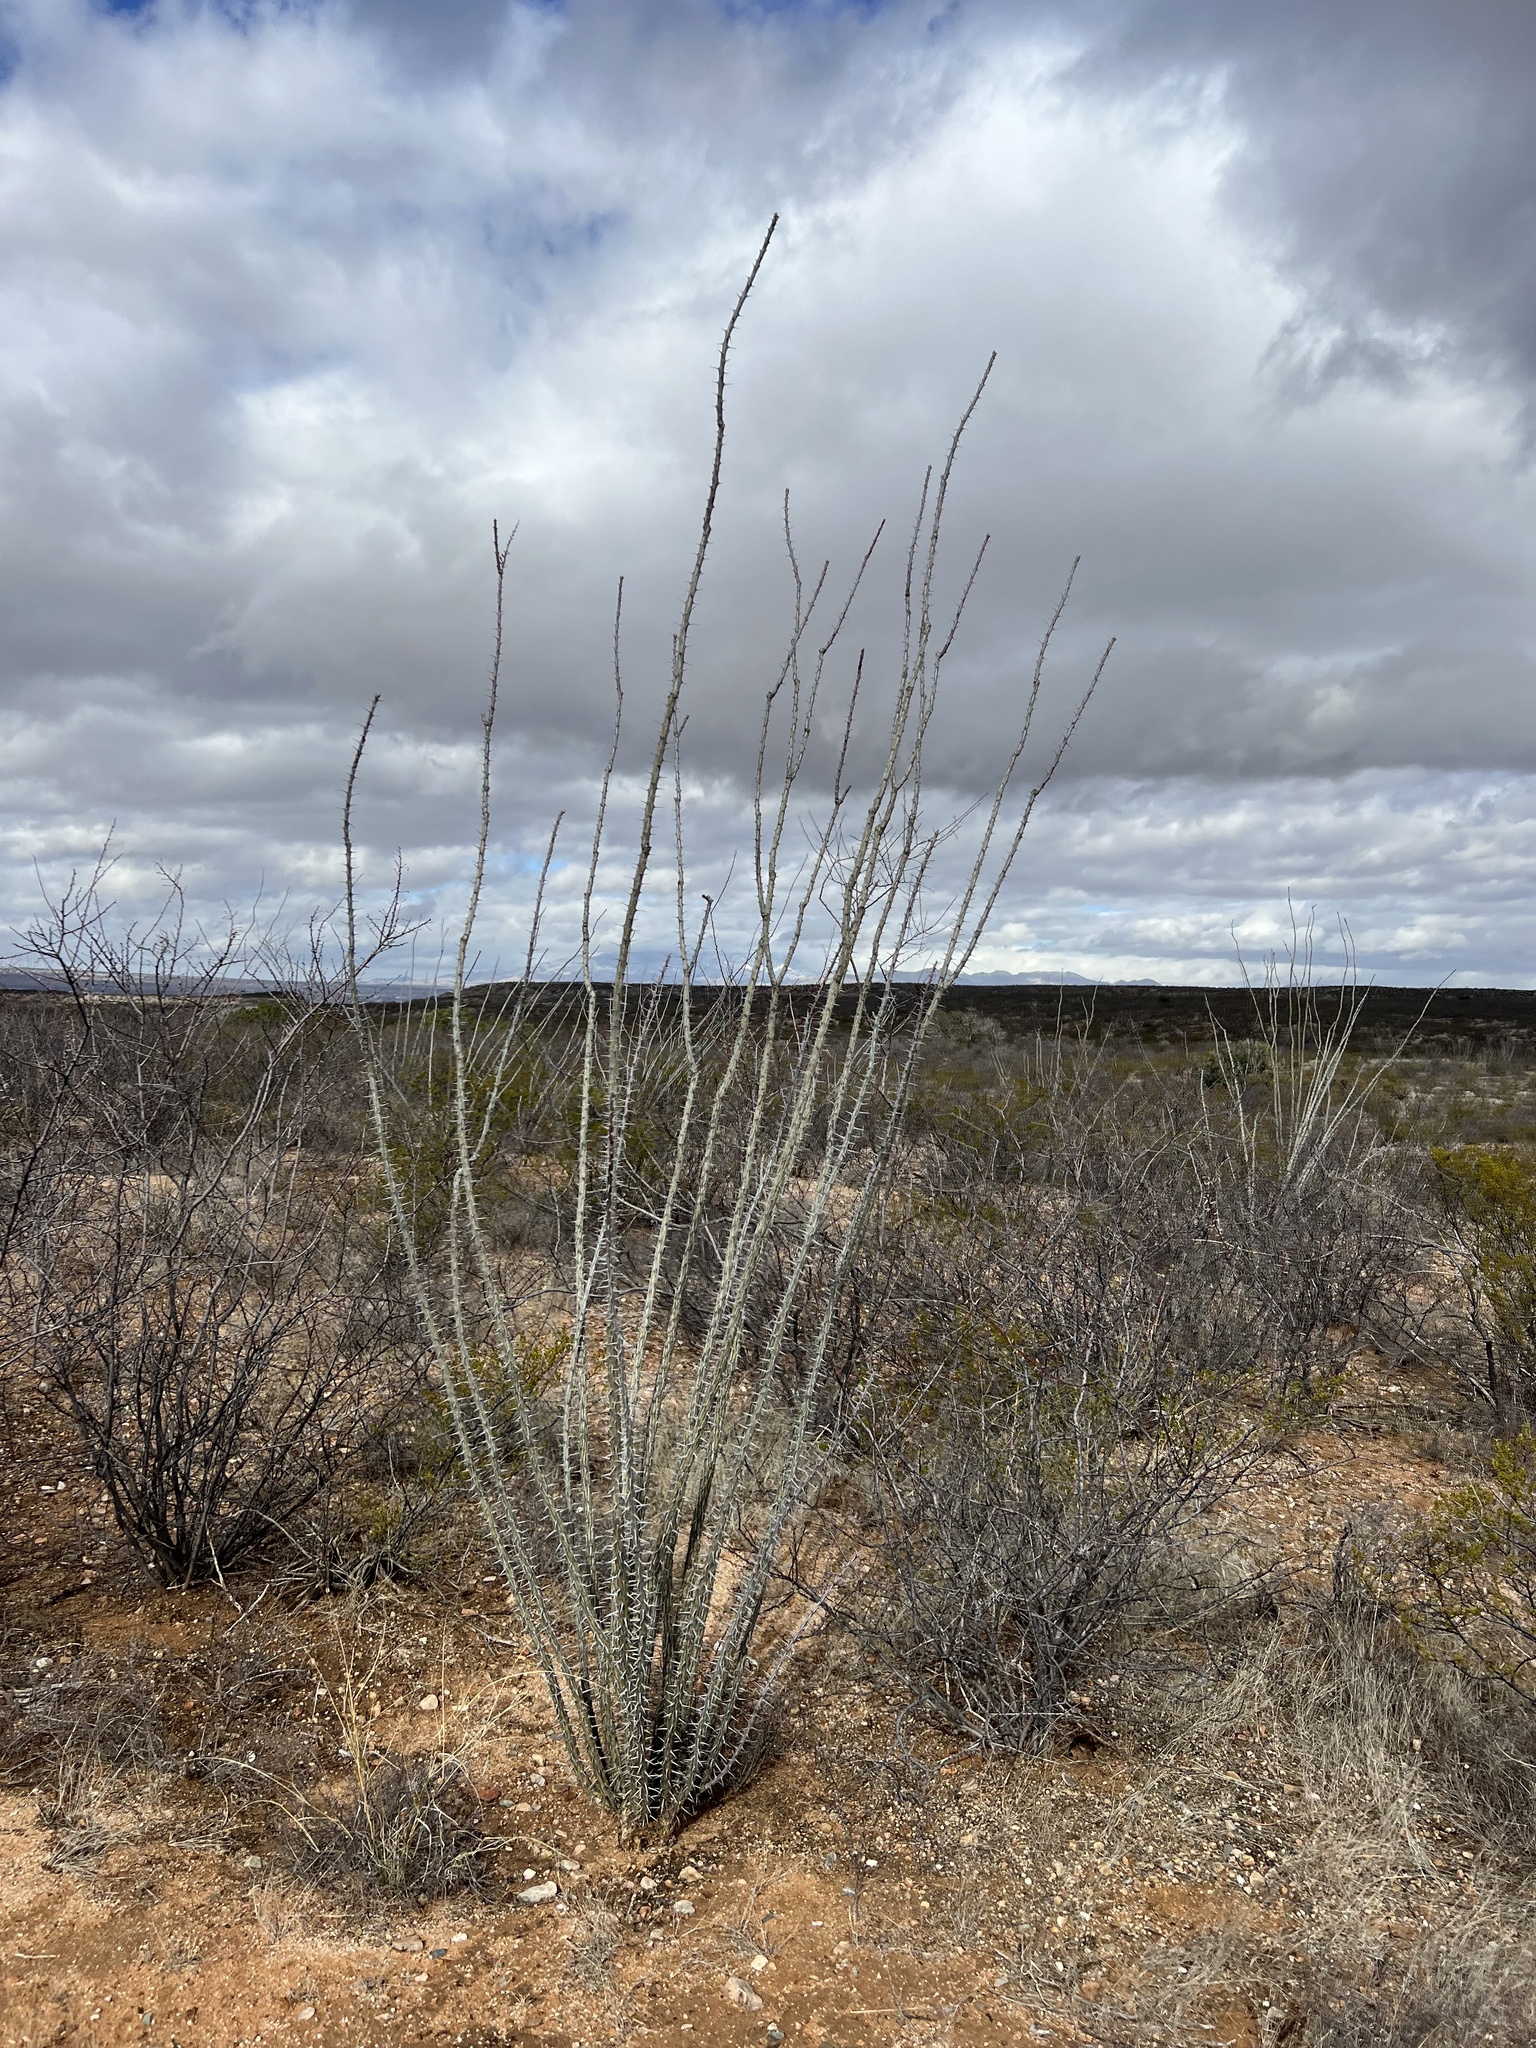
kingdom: Plantae
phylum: Tracheophyta
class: Magnoliopsida
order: Ericales
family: Fouquieriaceae
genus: Fouquieria
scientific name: Fouquieria splendens
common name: Vine-cactus
